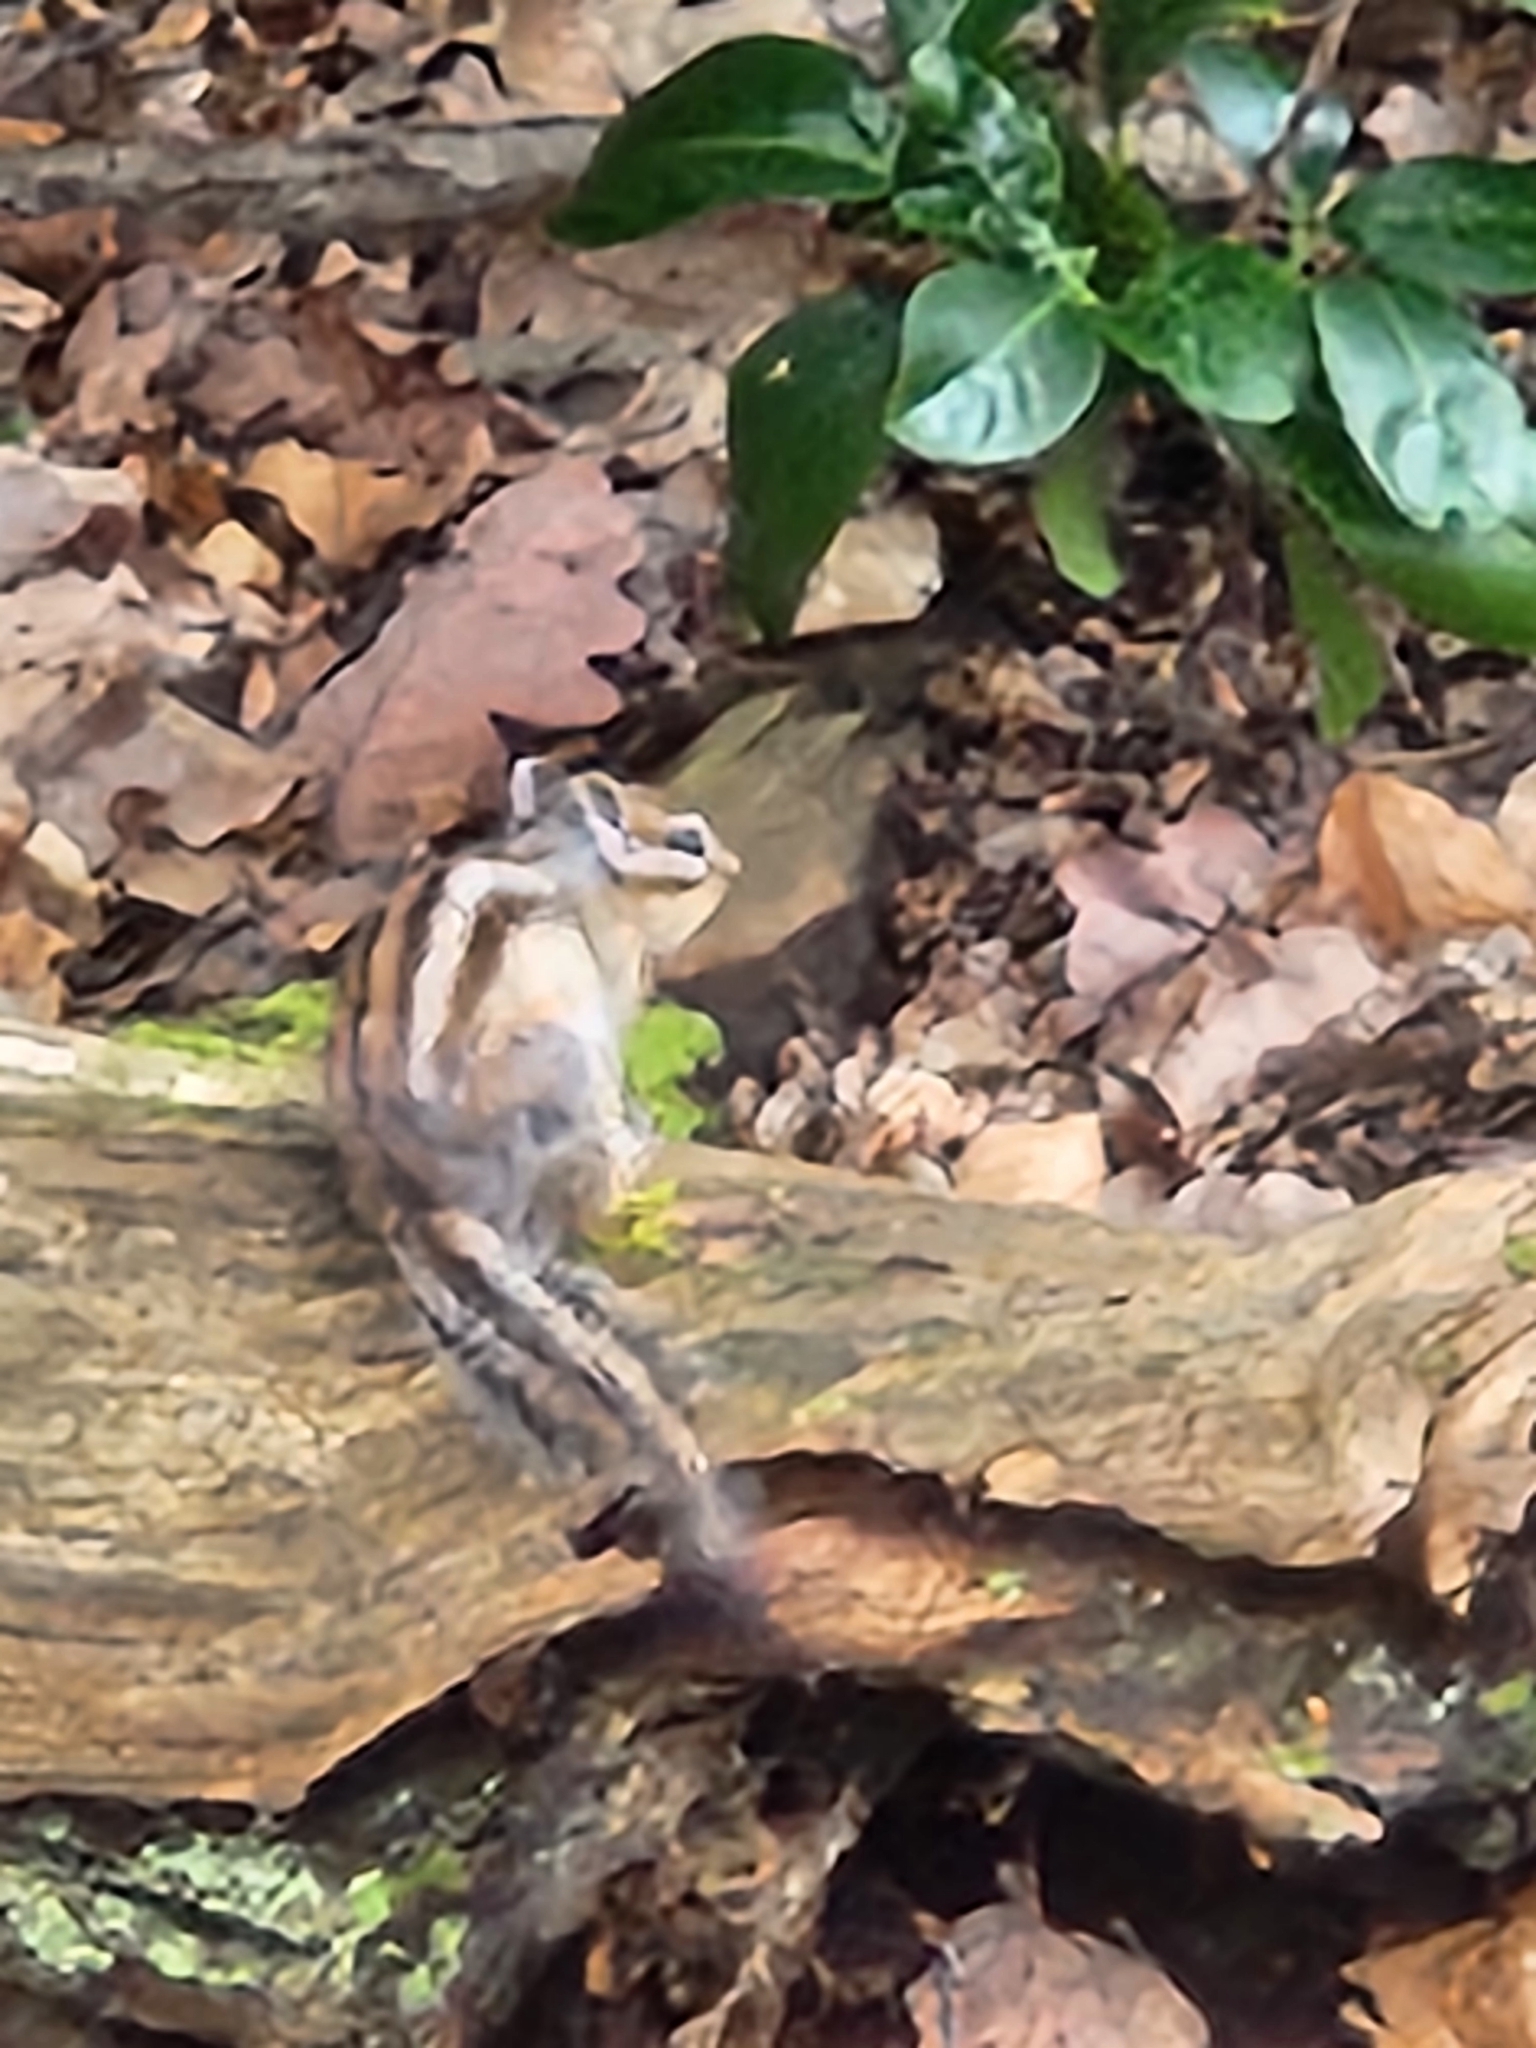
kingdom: Animalia
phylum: Chordata
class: Mammalia
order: Rodentia
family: Sciuridae
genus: Tamias
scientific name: Tamias sibiricus
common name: Siberian chipmunk
